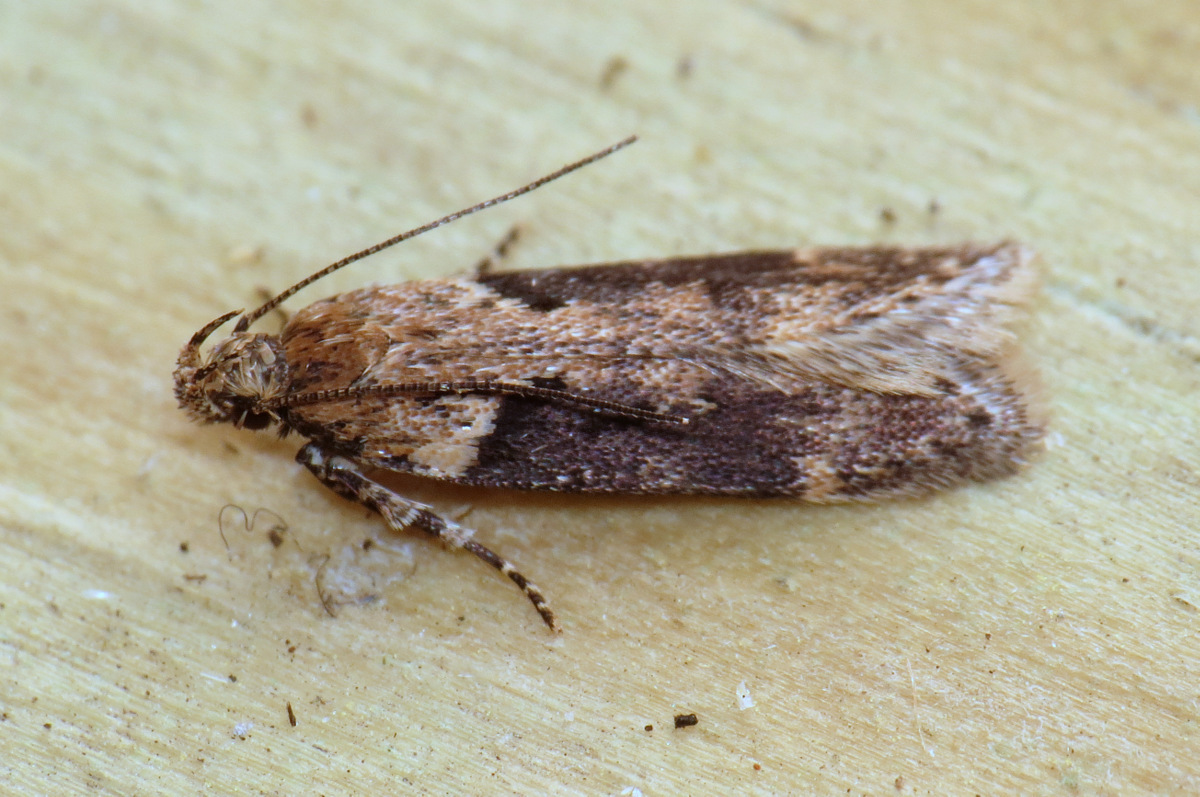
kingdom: Animalia
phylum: Arthropoda
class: Insecta
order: Lepidoptera
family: Gelechiidae
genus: Chionodes
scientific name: Chionodes mediofuscella
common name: Black-smudged chionodes moth
